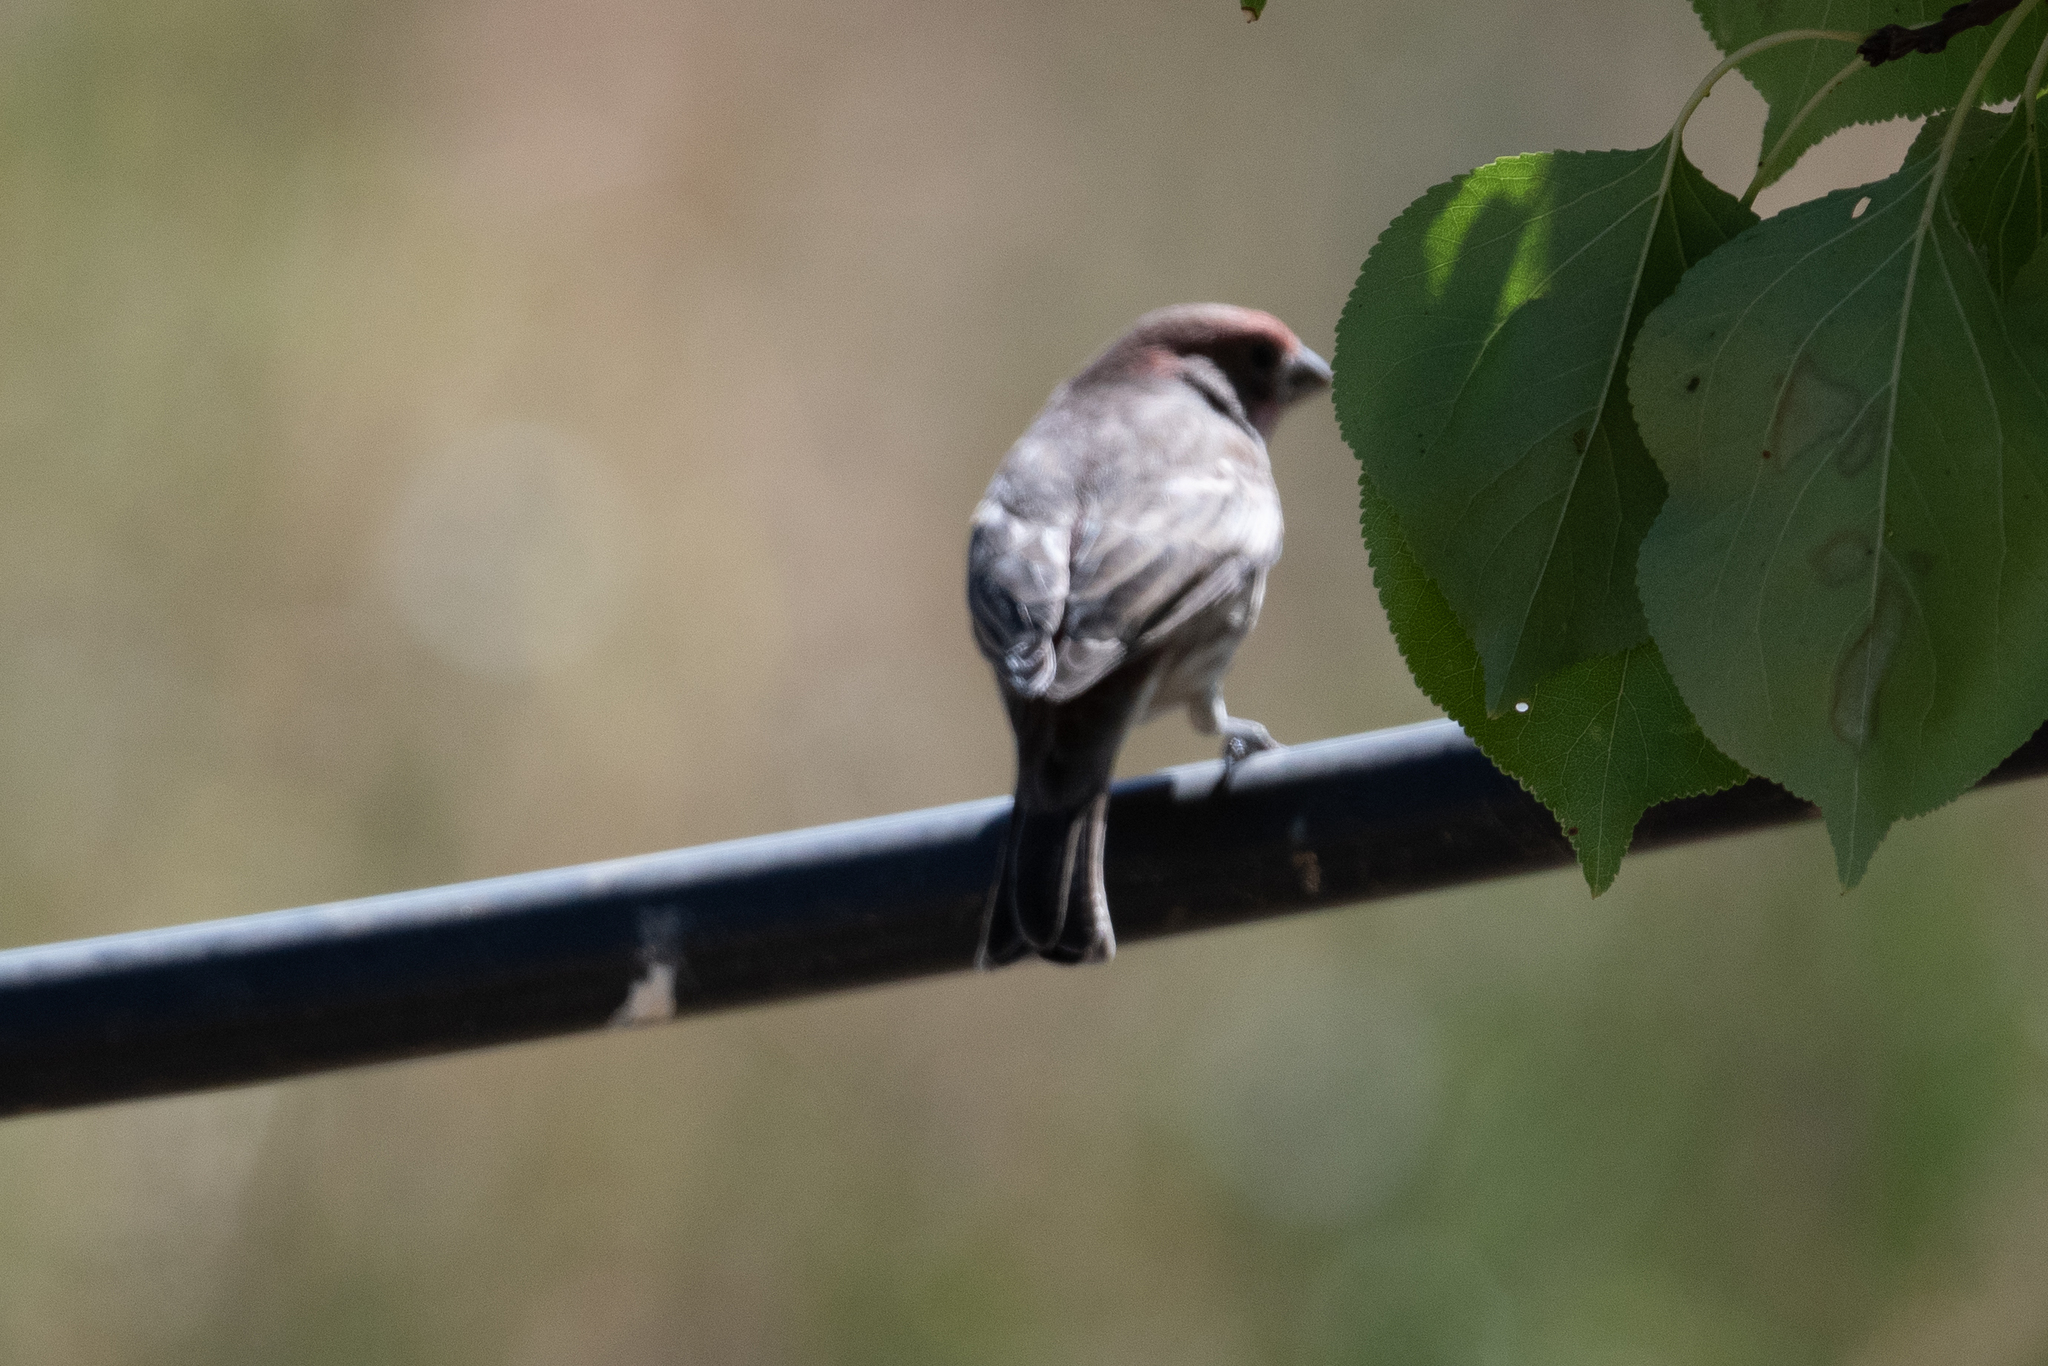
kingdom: Animalia
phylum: Chordata
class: Aves
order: Passeriformes
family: Fringillidae
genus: Haemorhous
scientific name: Haemorhous mexicanus
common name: House finch
